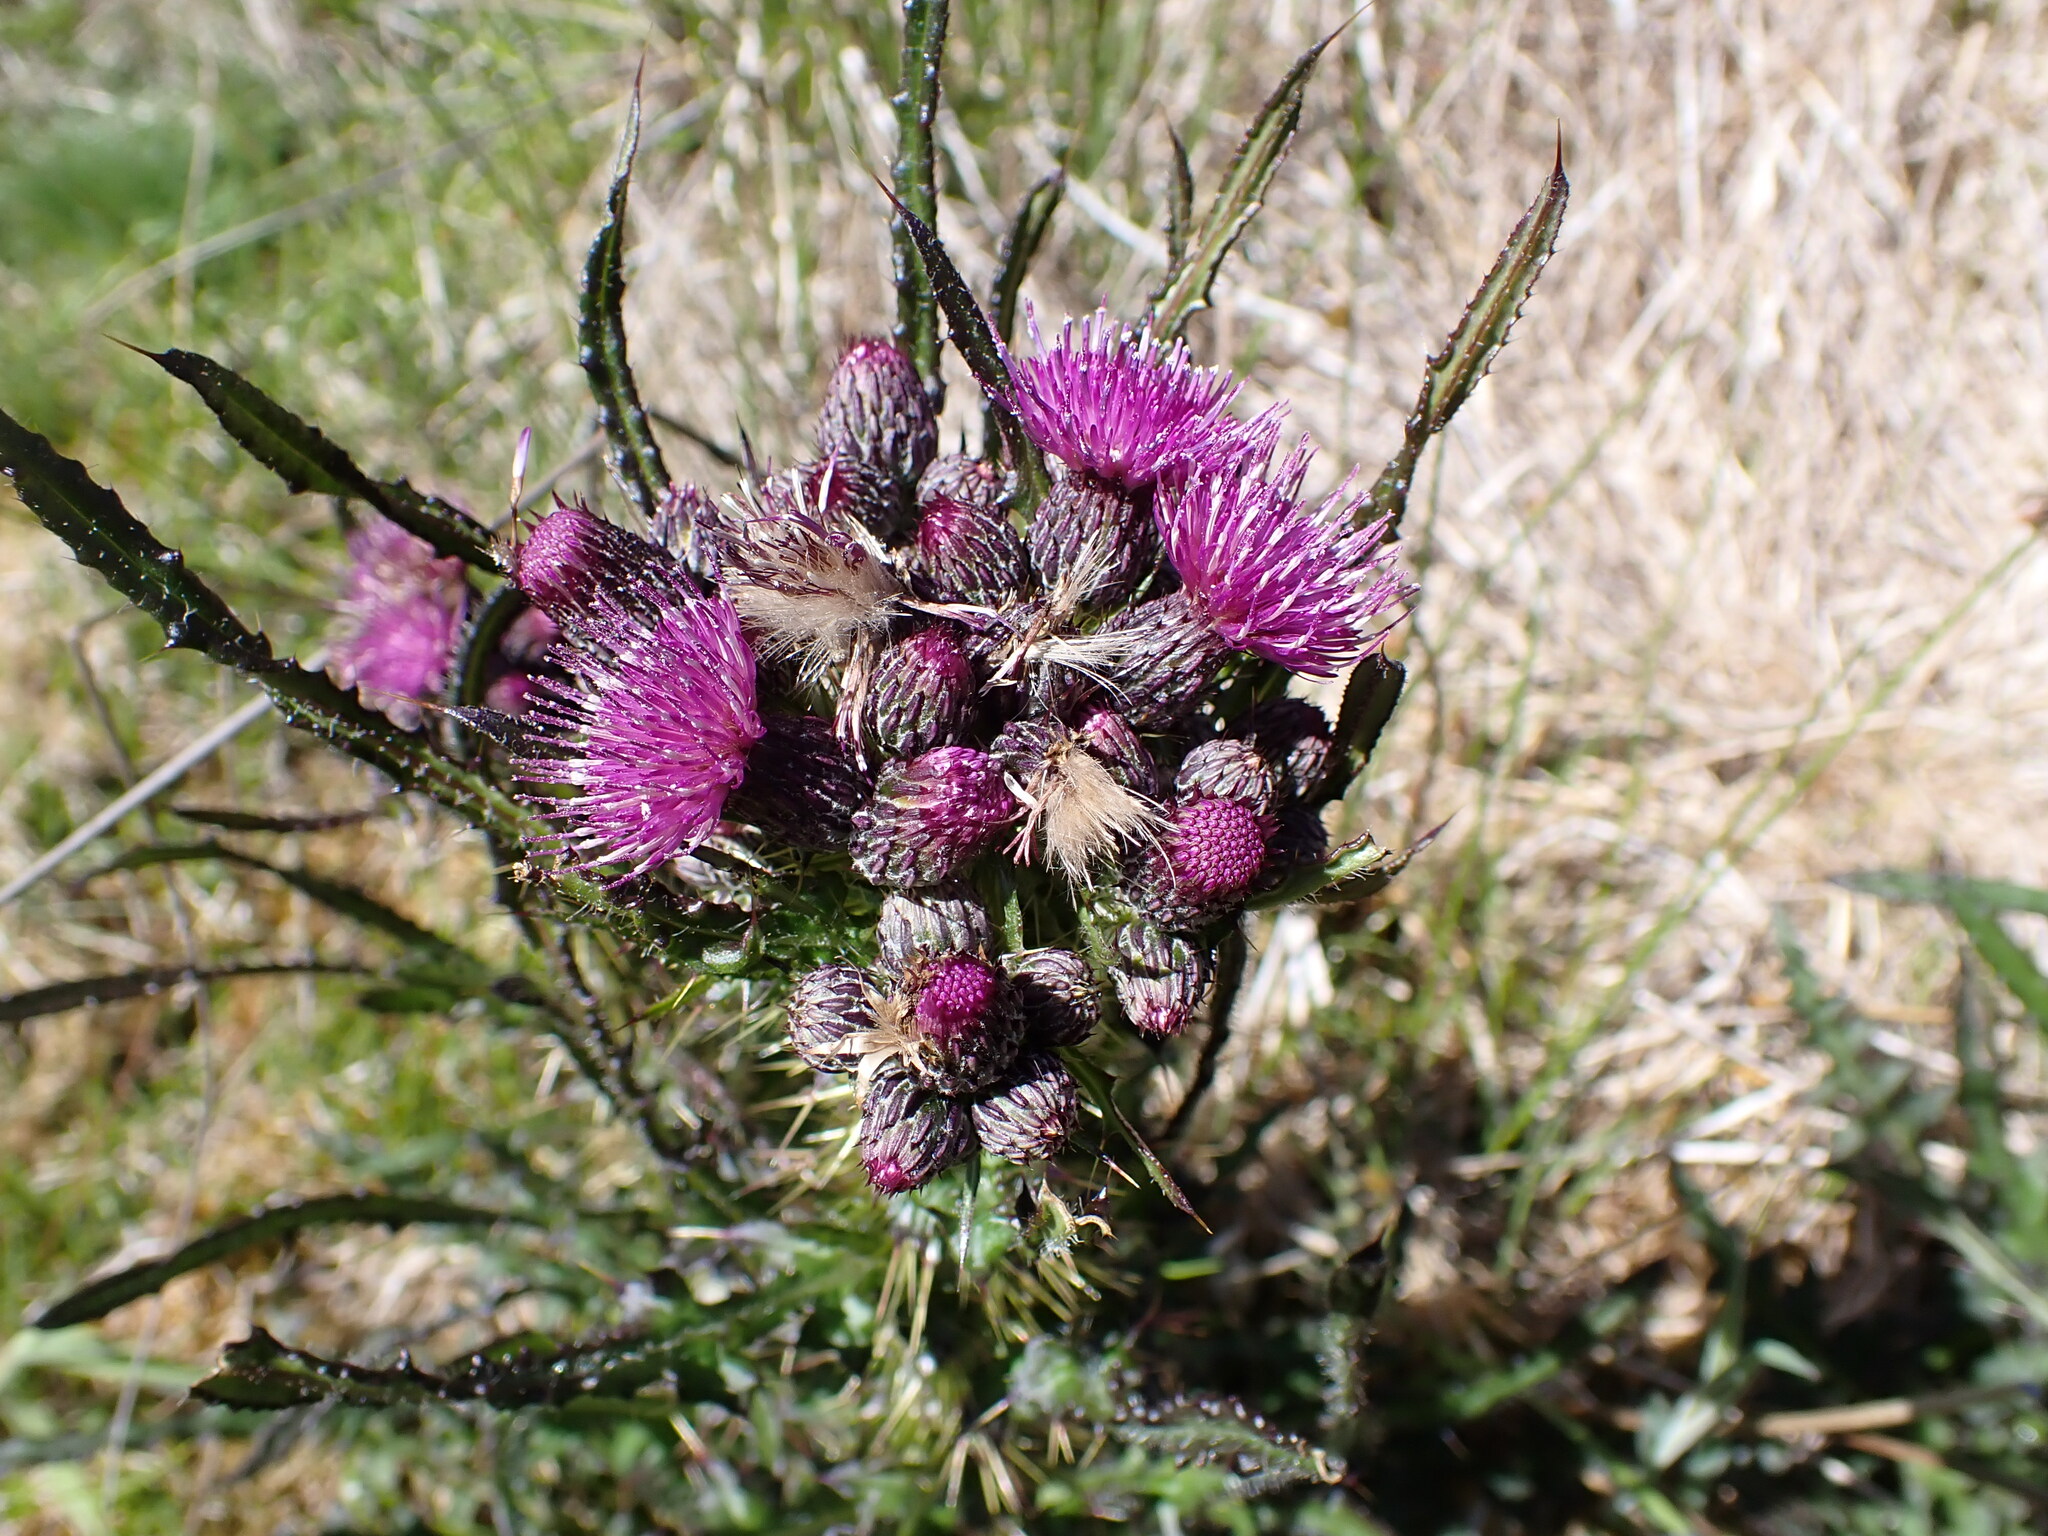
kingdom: Plantae
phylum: Tracheophyta
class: Magnoliopsida
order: Asterales
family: Asteraceae
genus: Cirsium
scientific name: Cirsium palustre
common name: Marsh thistle
